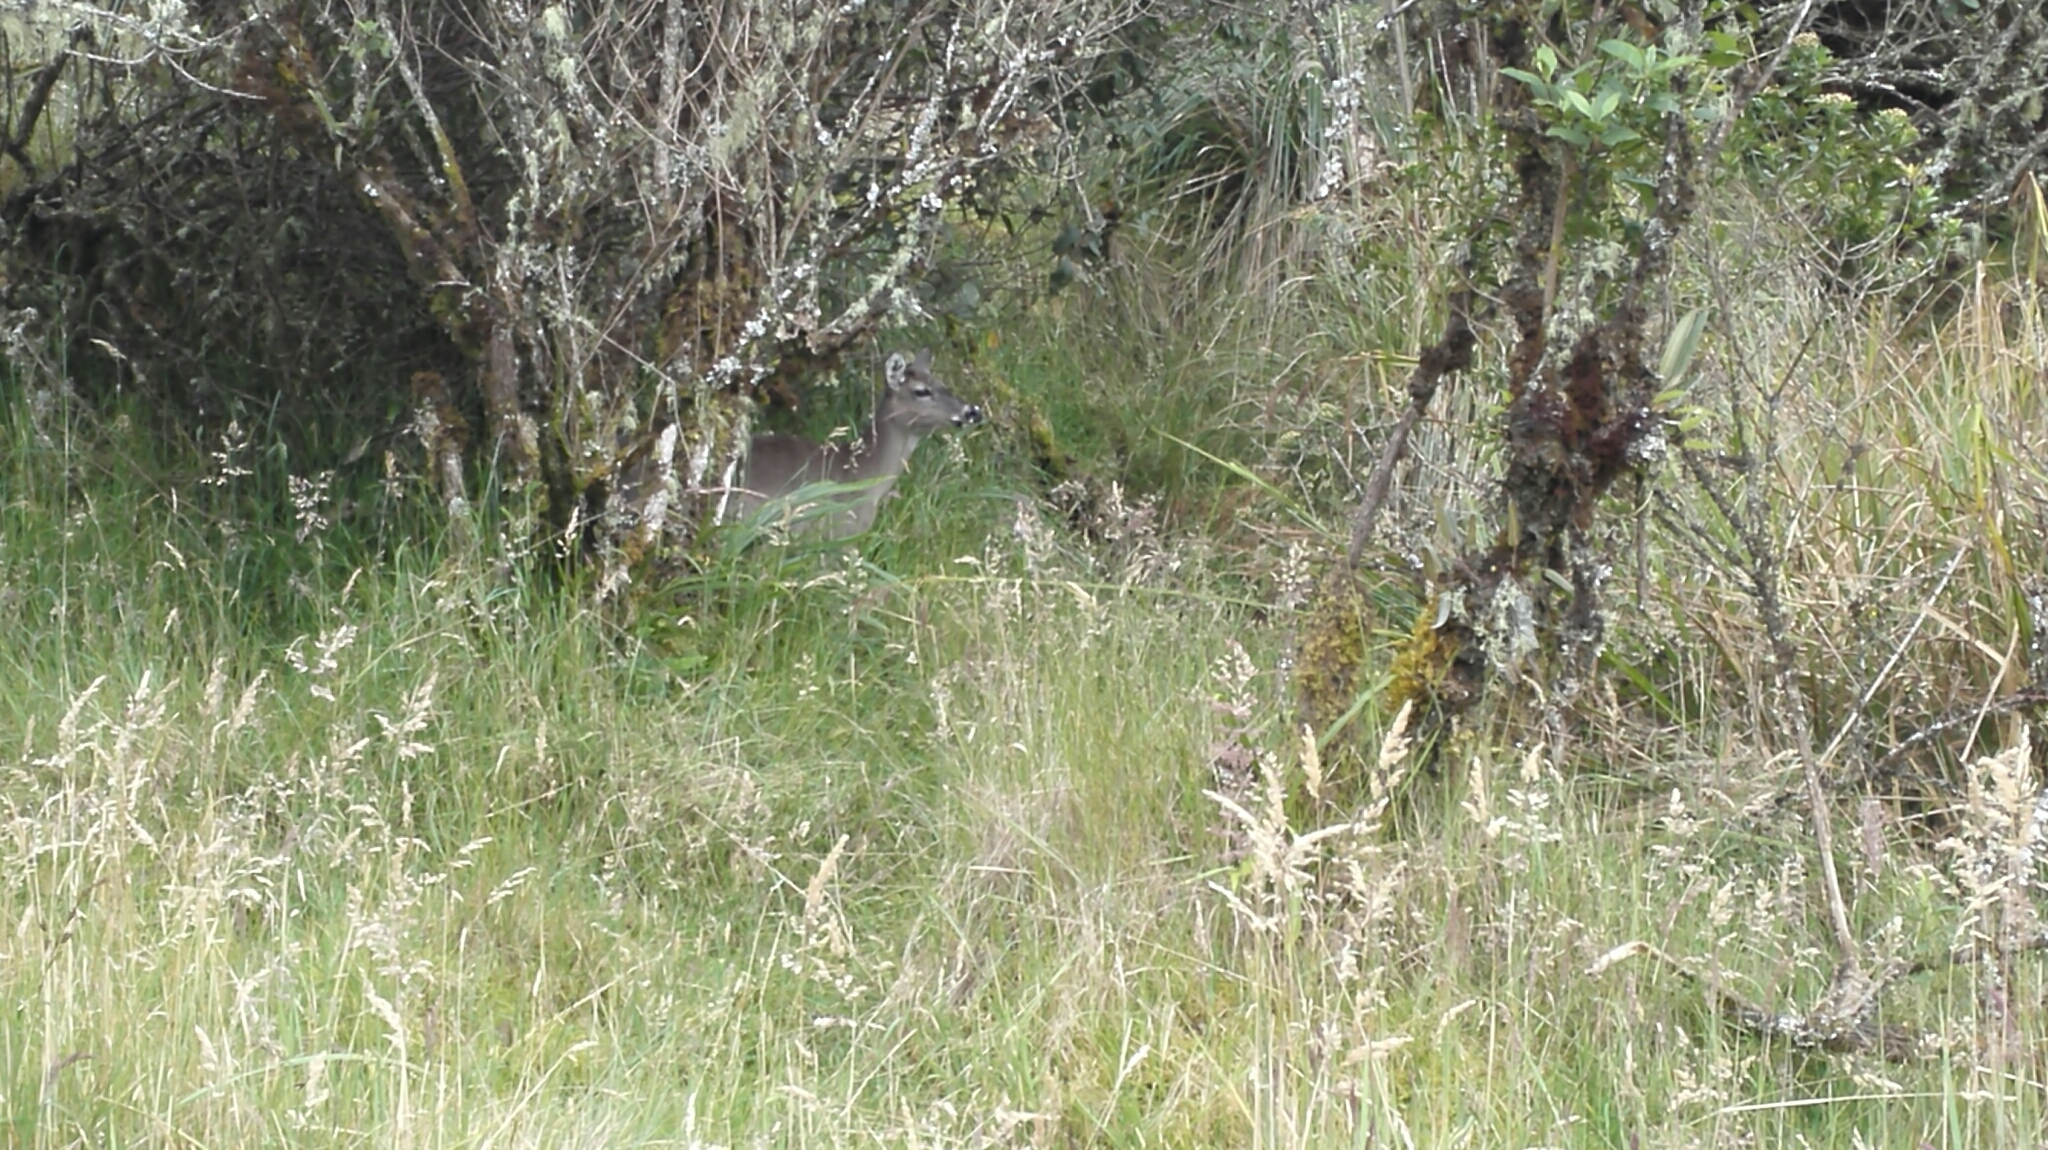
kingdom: Animalia
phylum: Chordata
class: Mammalia
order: Artiodactyla
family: Cervidae
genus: Odocoileus
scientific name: Odocoileus virginianus
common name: White-tailed deer
